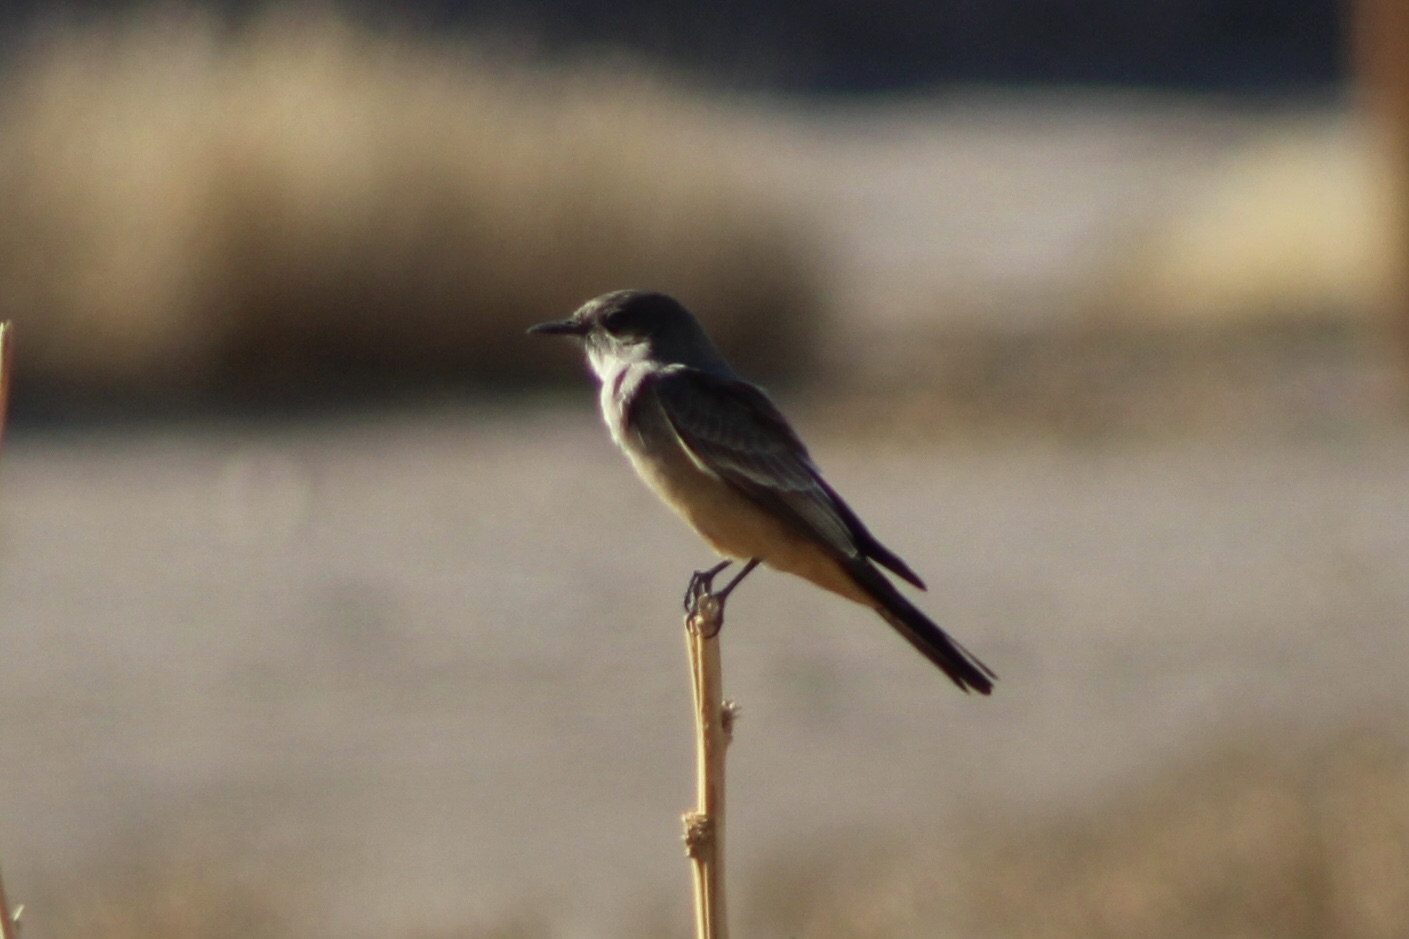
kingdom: Animalia
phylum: Chordata
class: Aves
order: Passeriformes
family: Tyrannidae
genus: Sayornis
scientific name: Sayornis saya
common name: Say's phoebe
